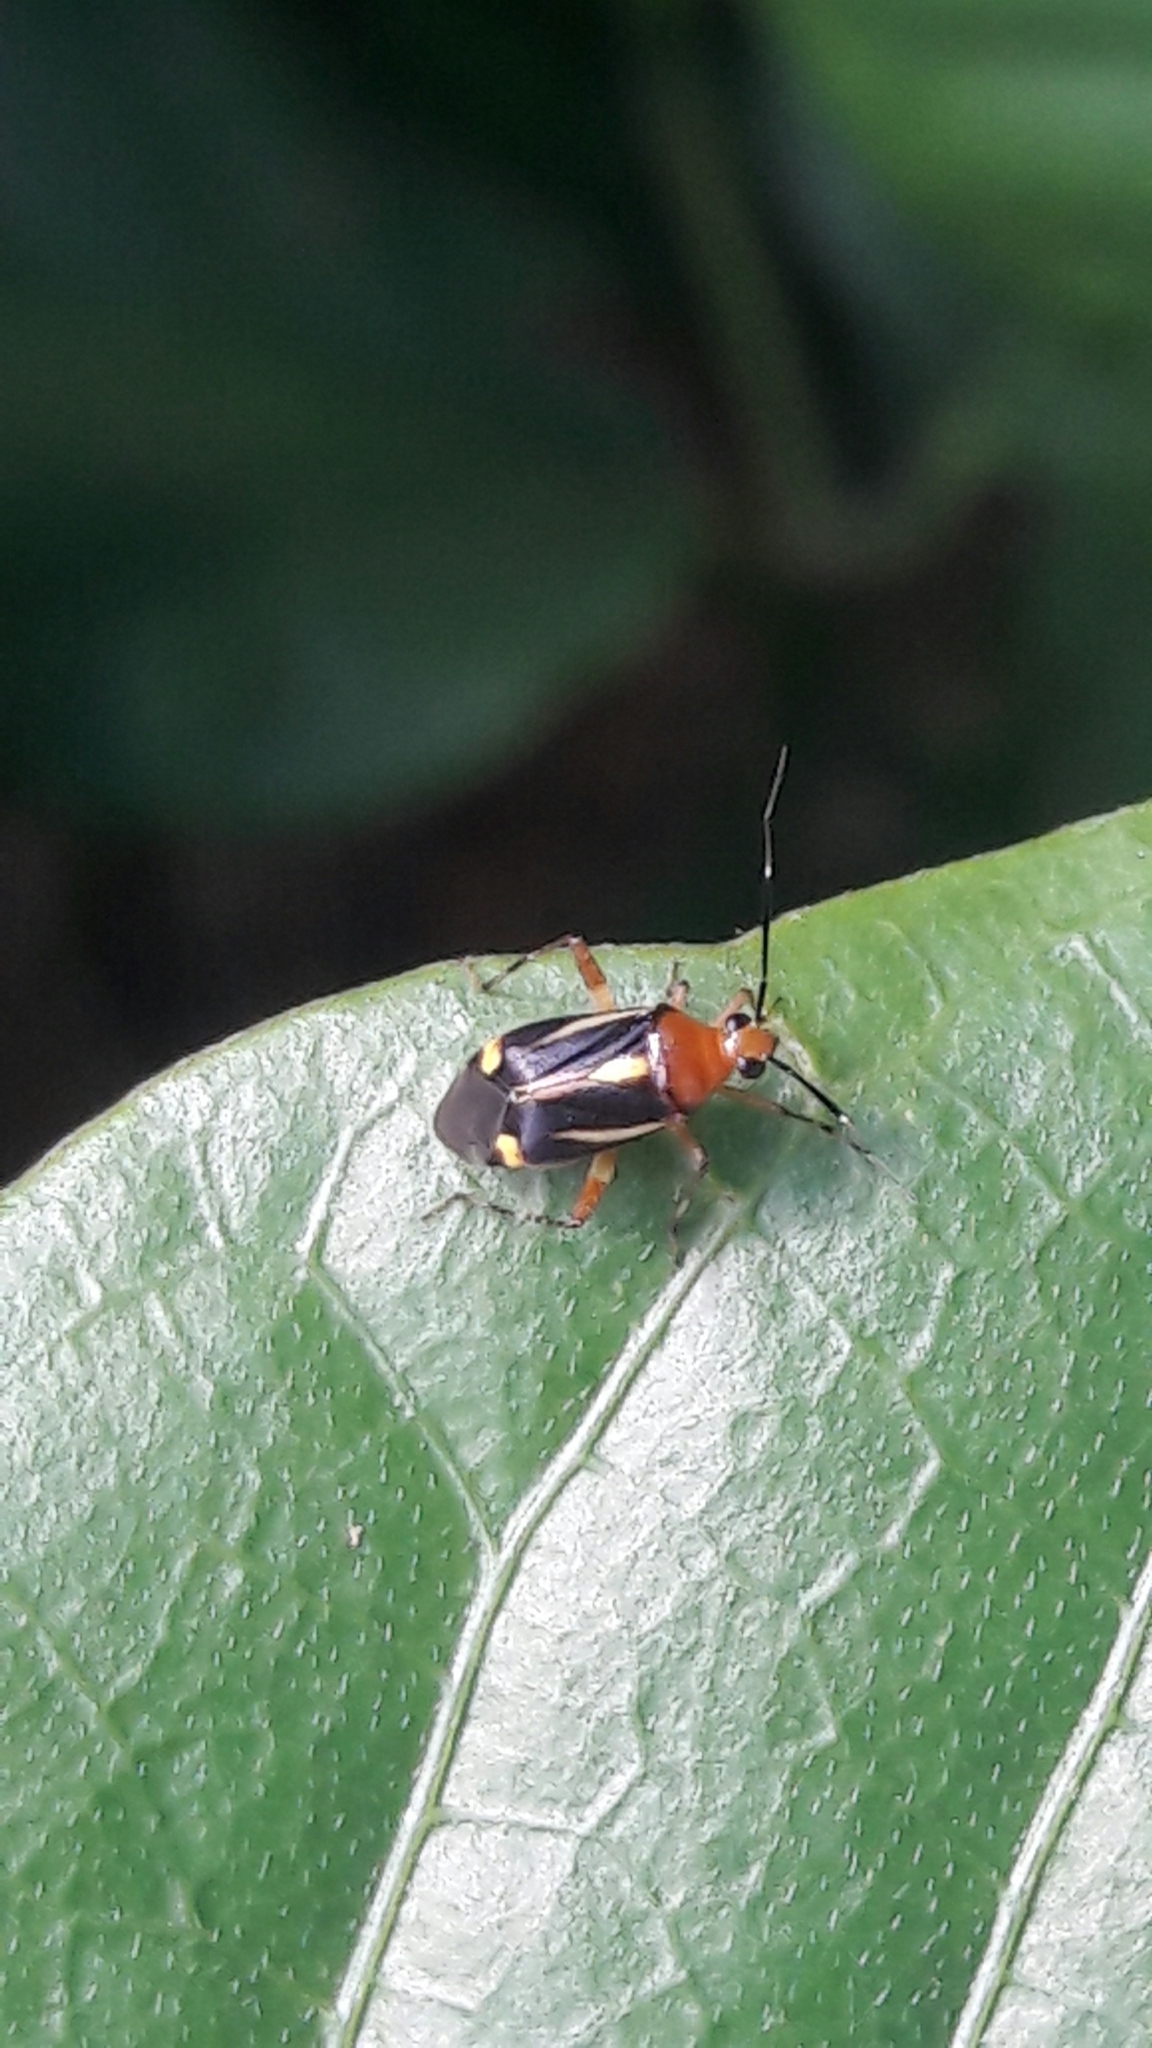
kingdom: Animalia
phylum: Arthropoda
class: Insecta
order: Hemiptera
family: Miridae
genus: Horciasinus
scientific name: Horciasinus signoreti
